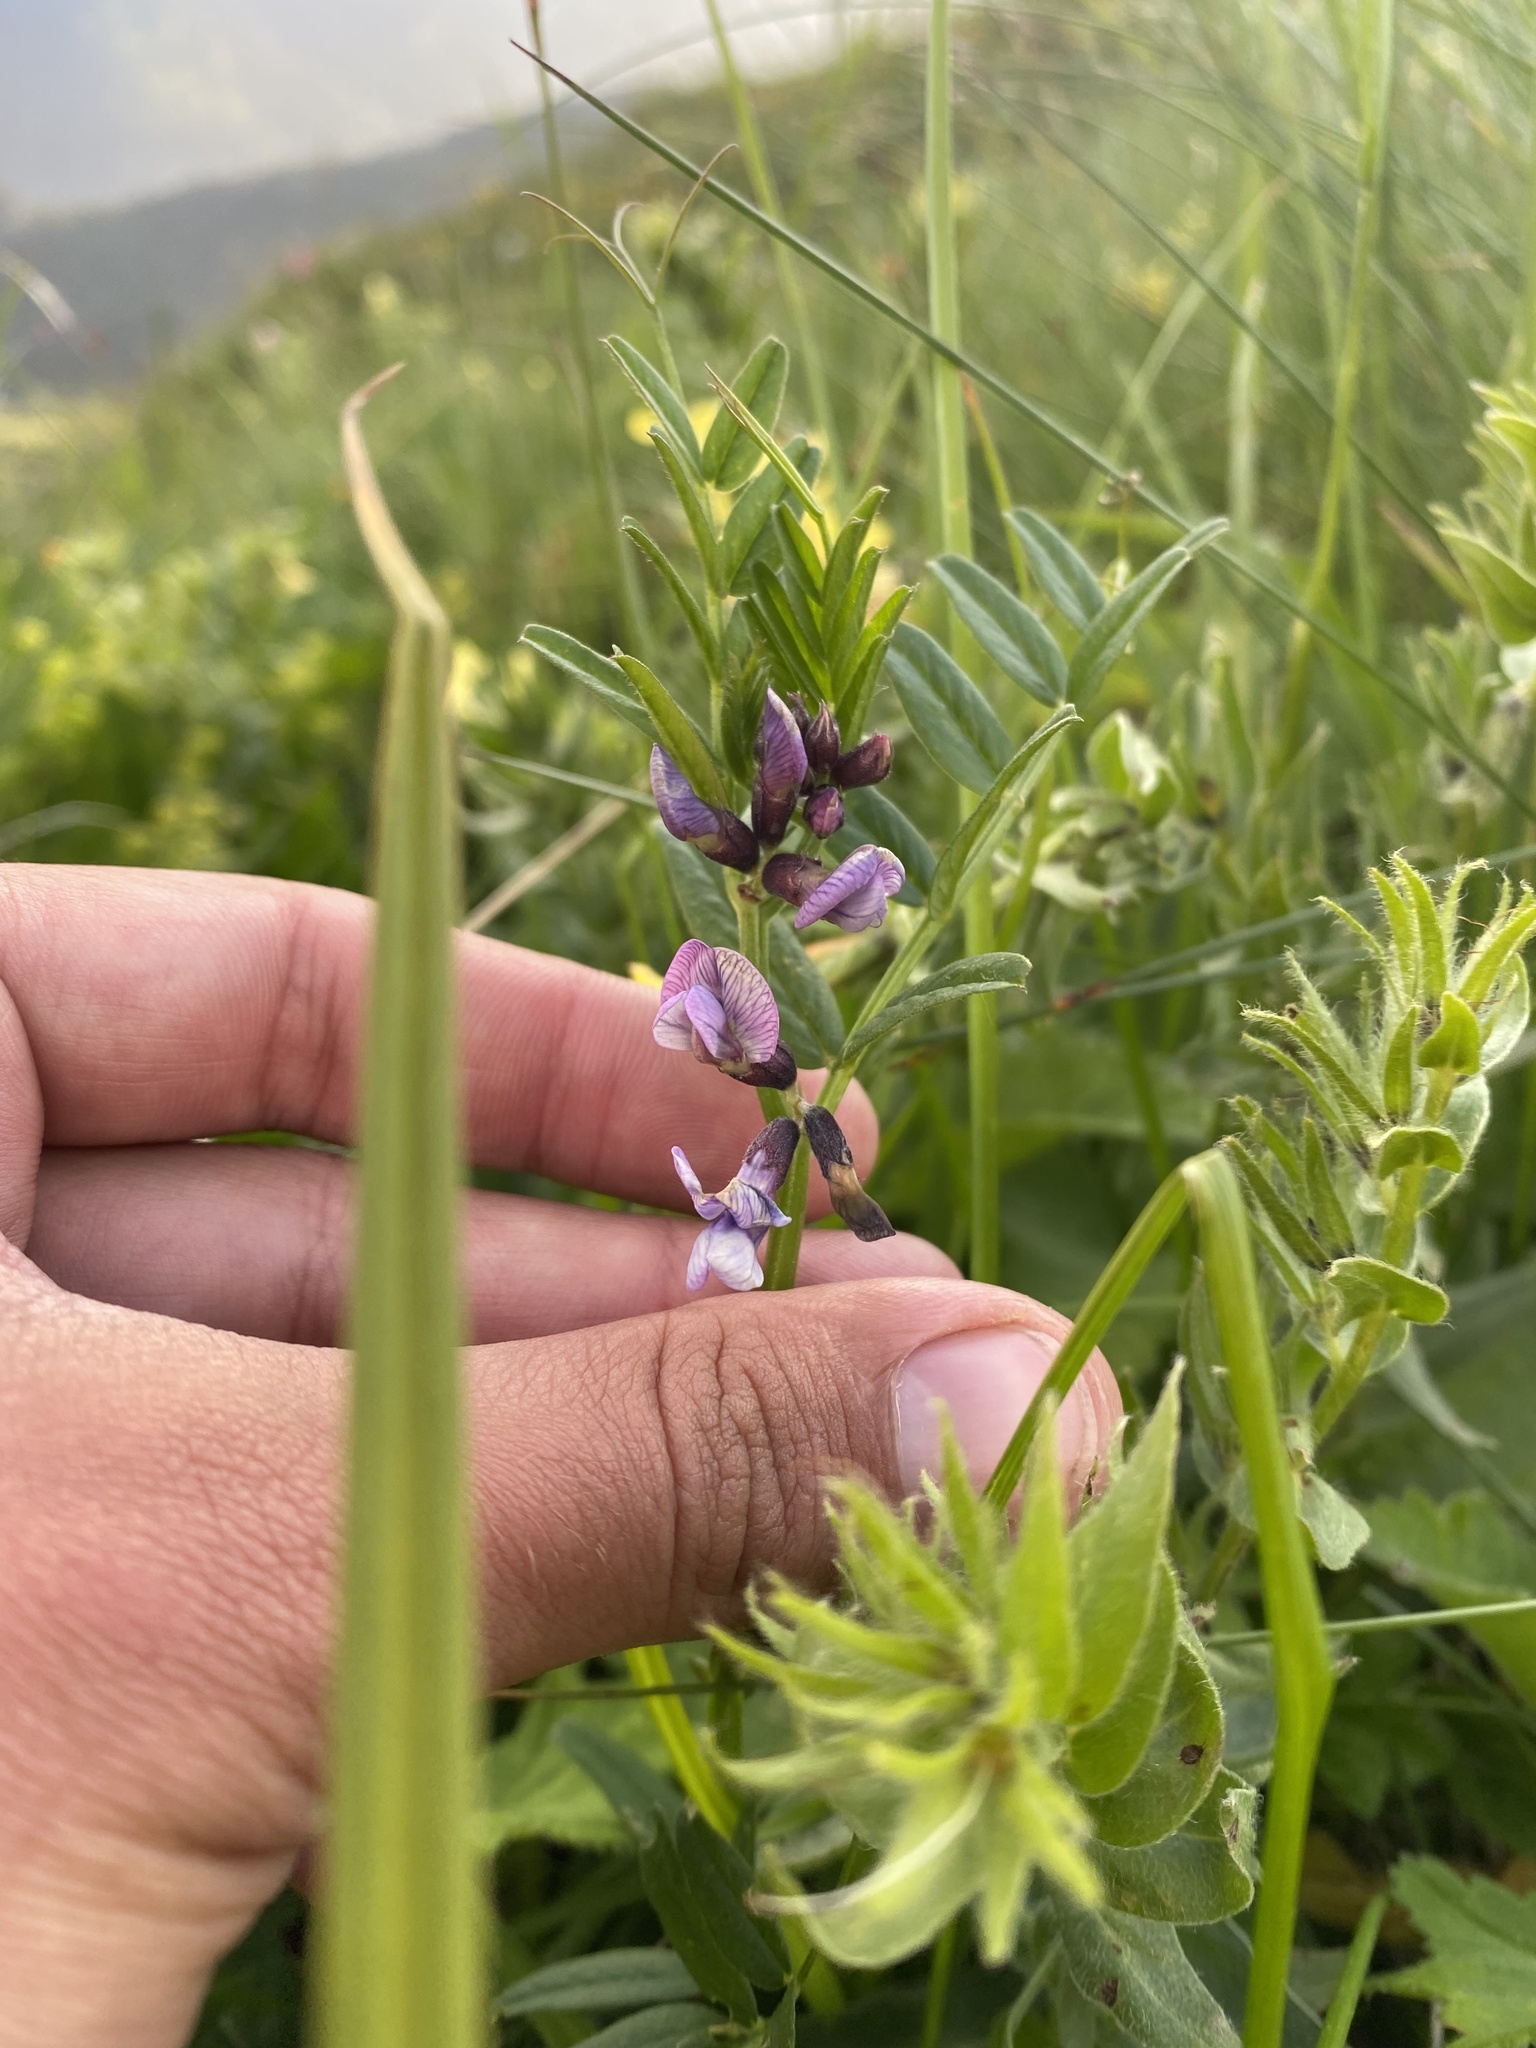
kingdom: Plantae
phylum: Tracheophyta
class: Magnoliopsida
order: Fabales
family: Fabaceae
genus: Vicia
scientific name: Vicia sepium
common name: Bush vetch
